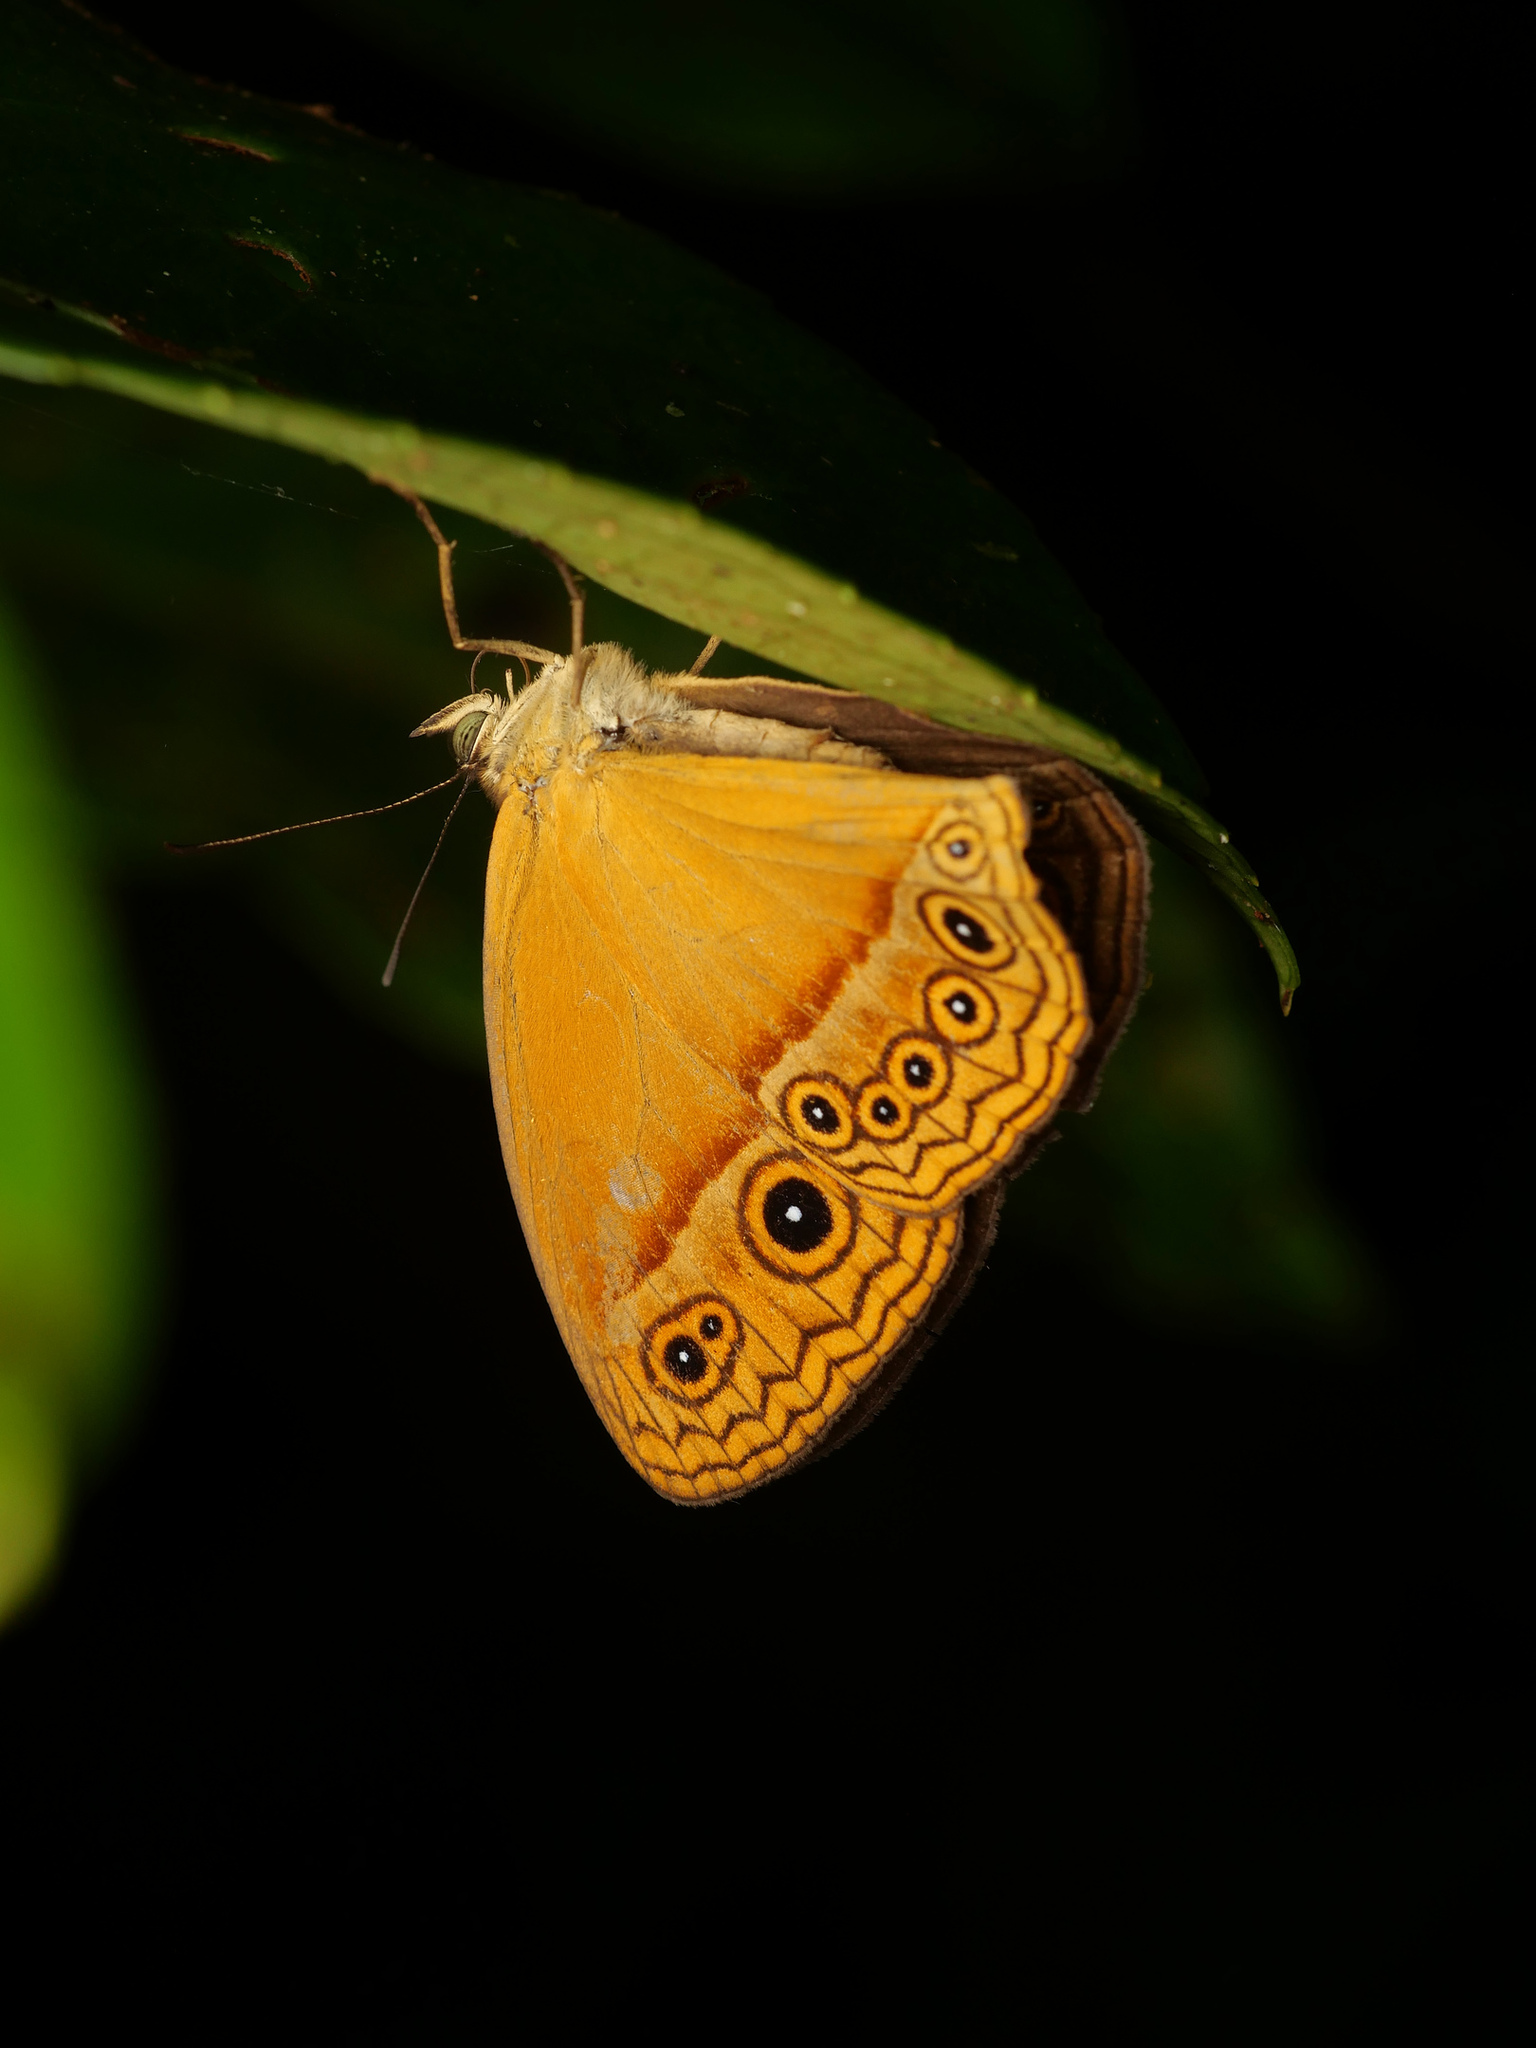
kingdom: Animalia
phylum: Arthropoda
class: Insecta
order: Lepidoptera
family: Nymphalidae
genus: Mycalesis
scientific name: Mycalesis phidon
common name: Hewitson's bushbrown
